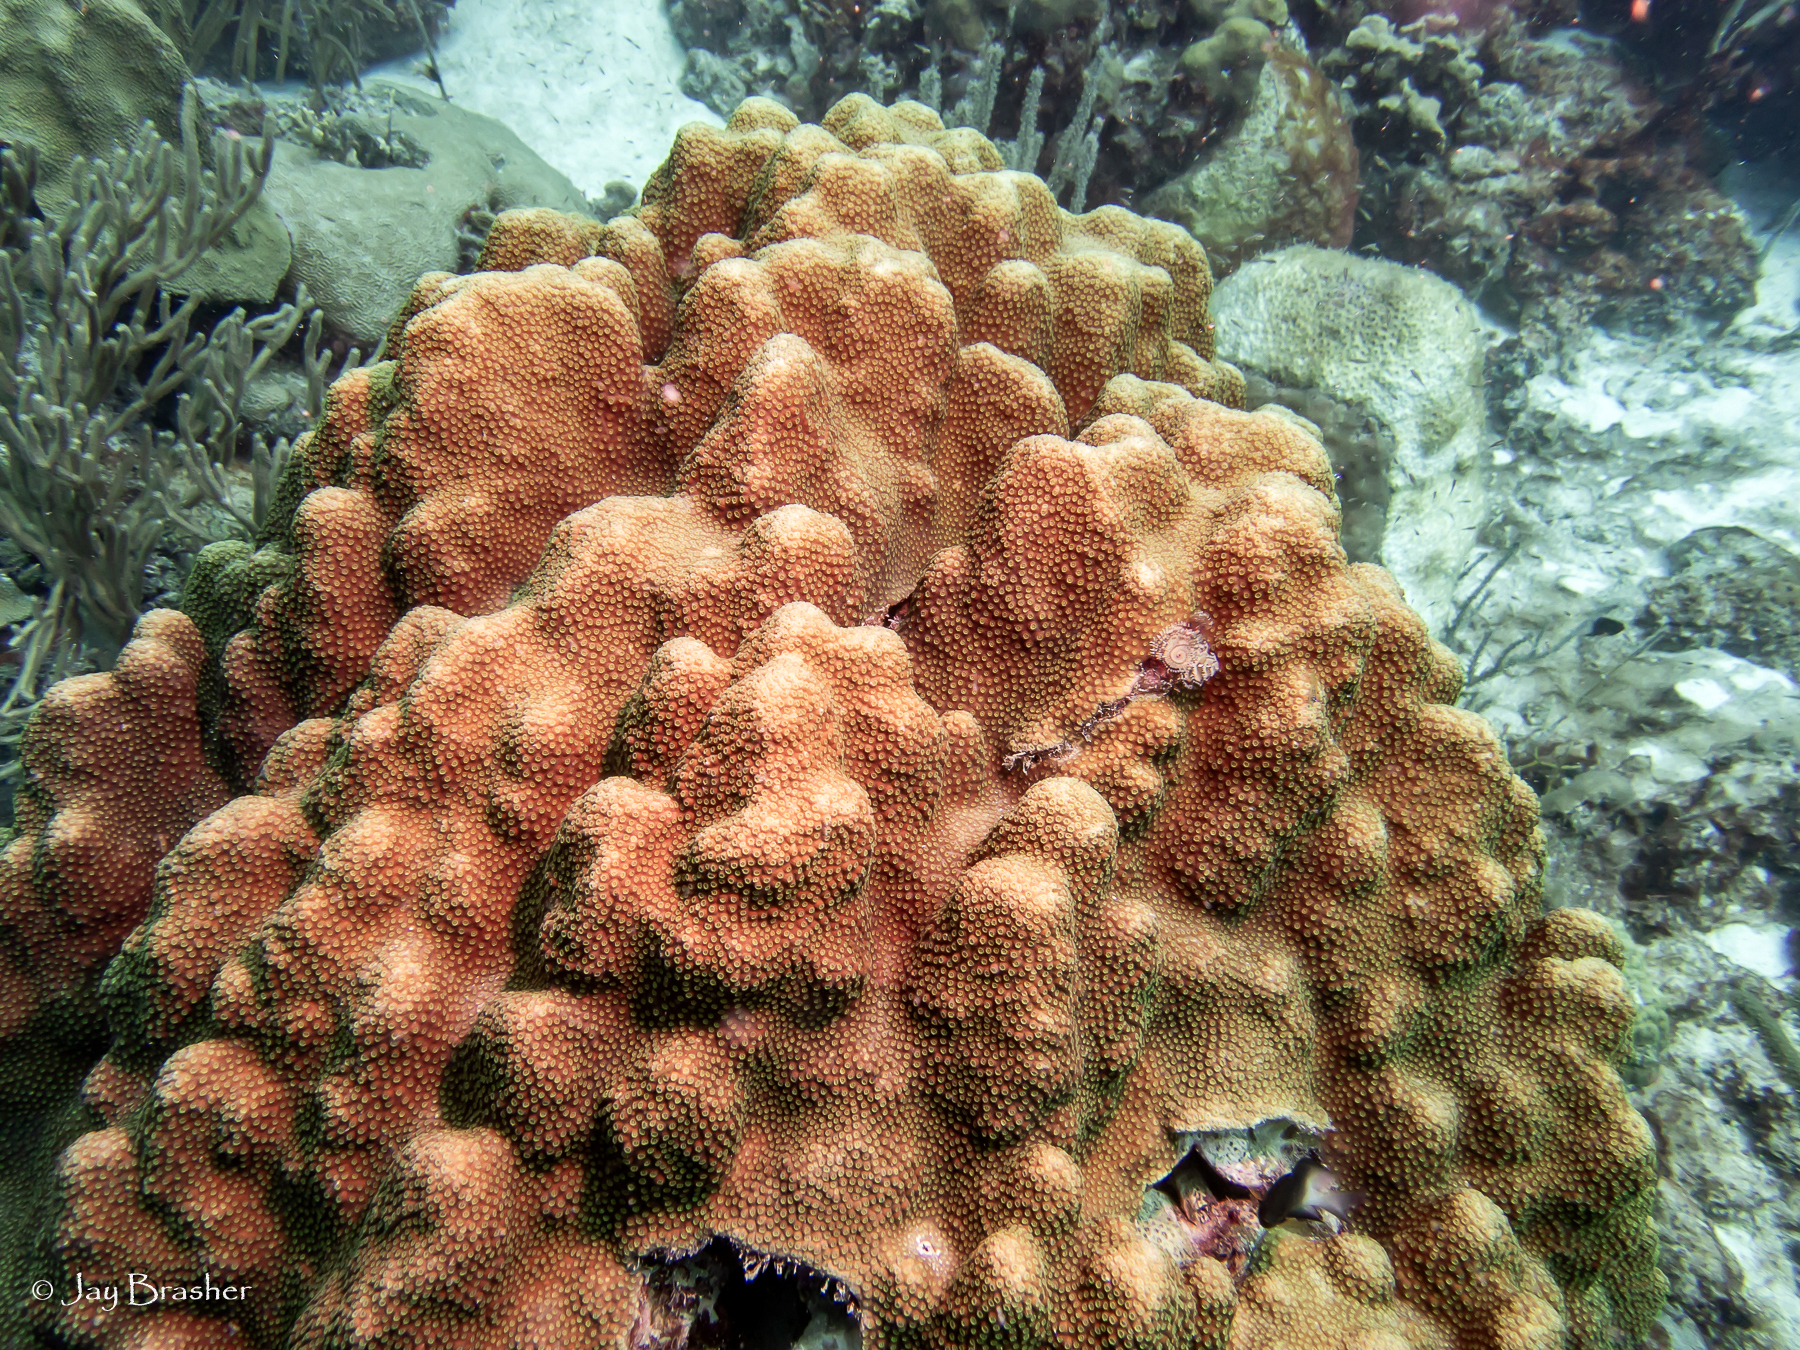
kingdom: Animalia
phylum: Cnidaria
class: Anthozoa
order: Scleractinia
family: Merulinidae
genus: Orbicella
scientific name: Orbicella faveolata
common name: Mountainous star coral
